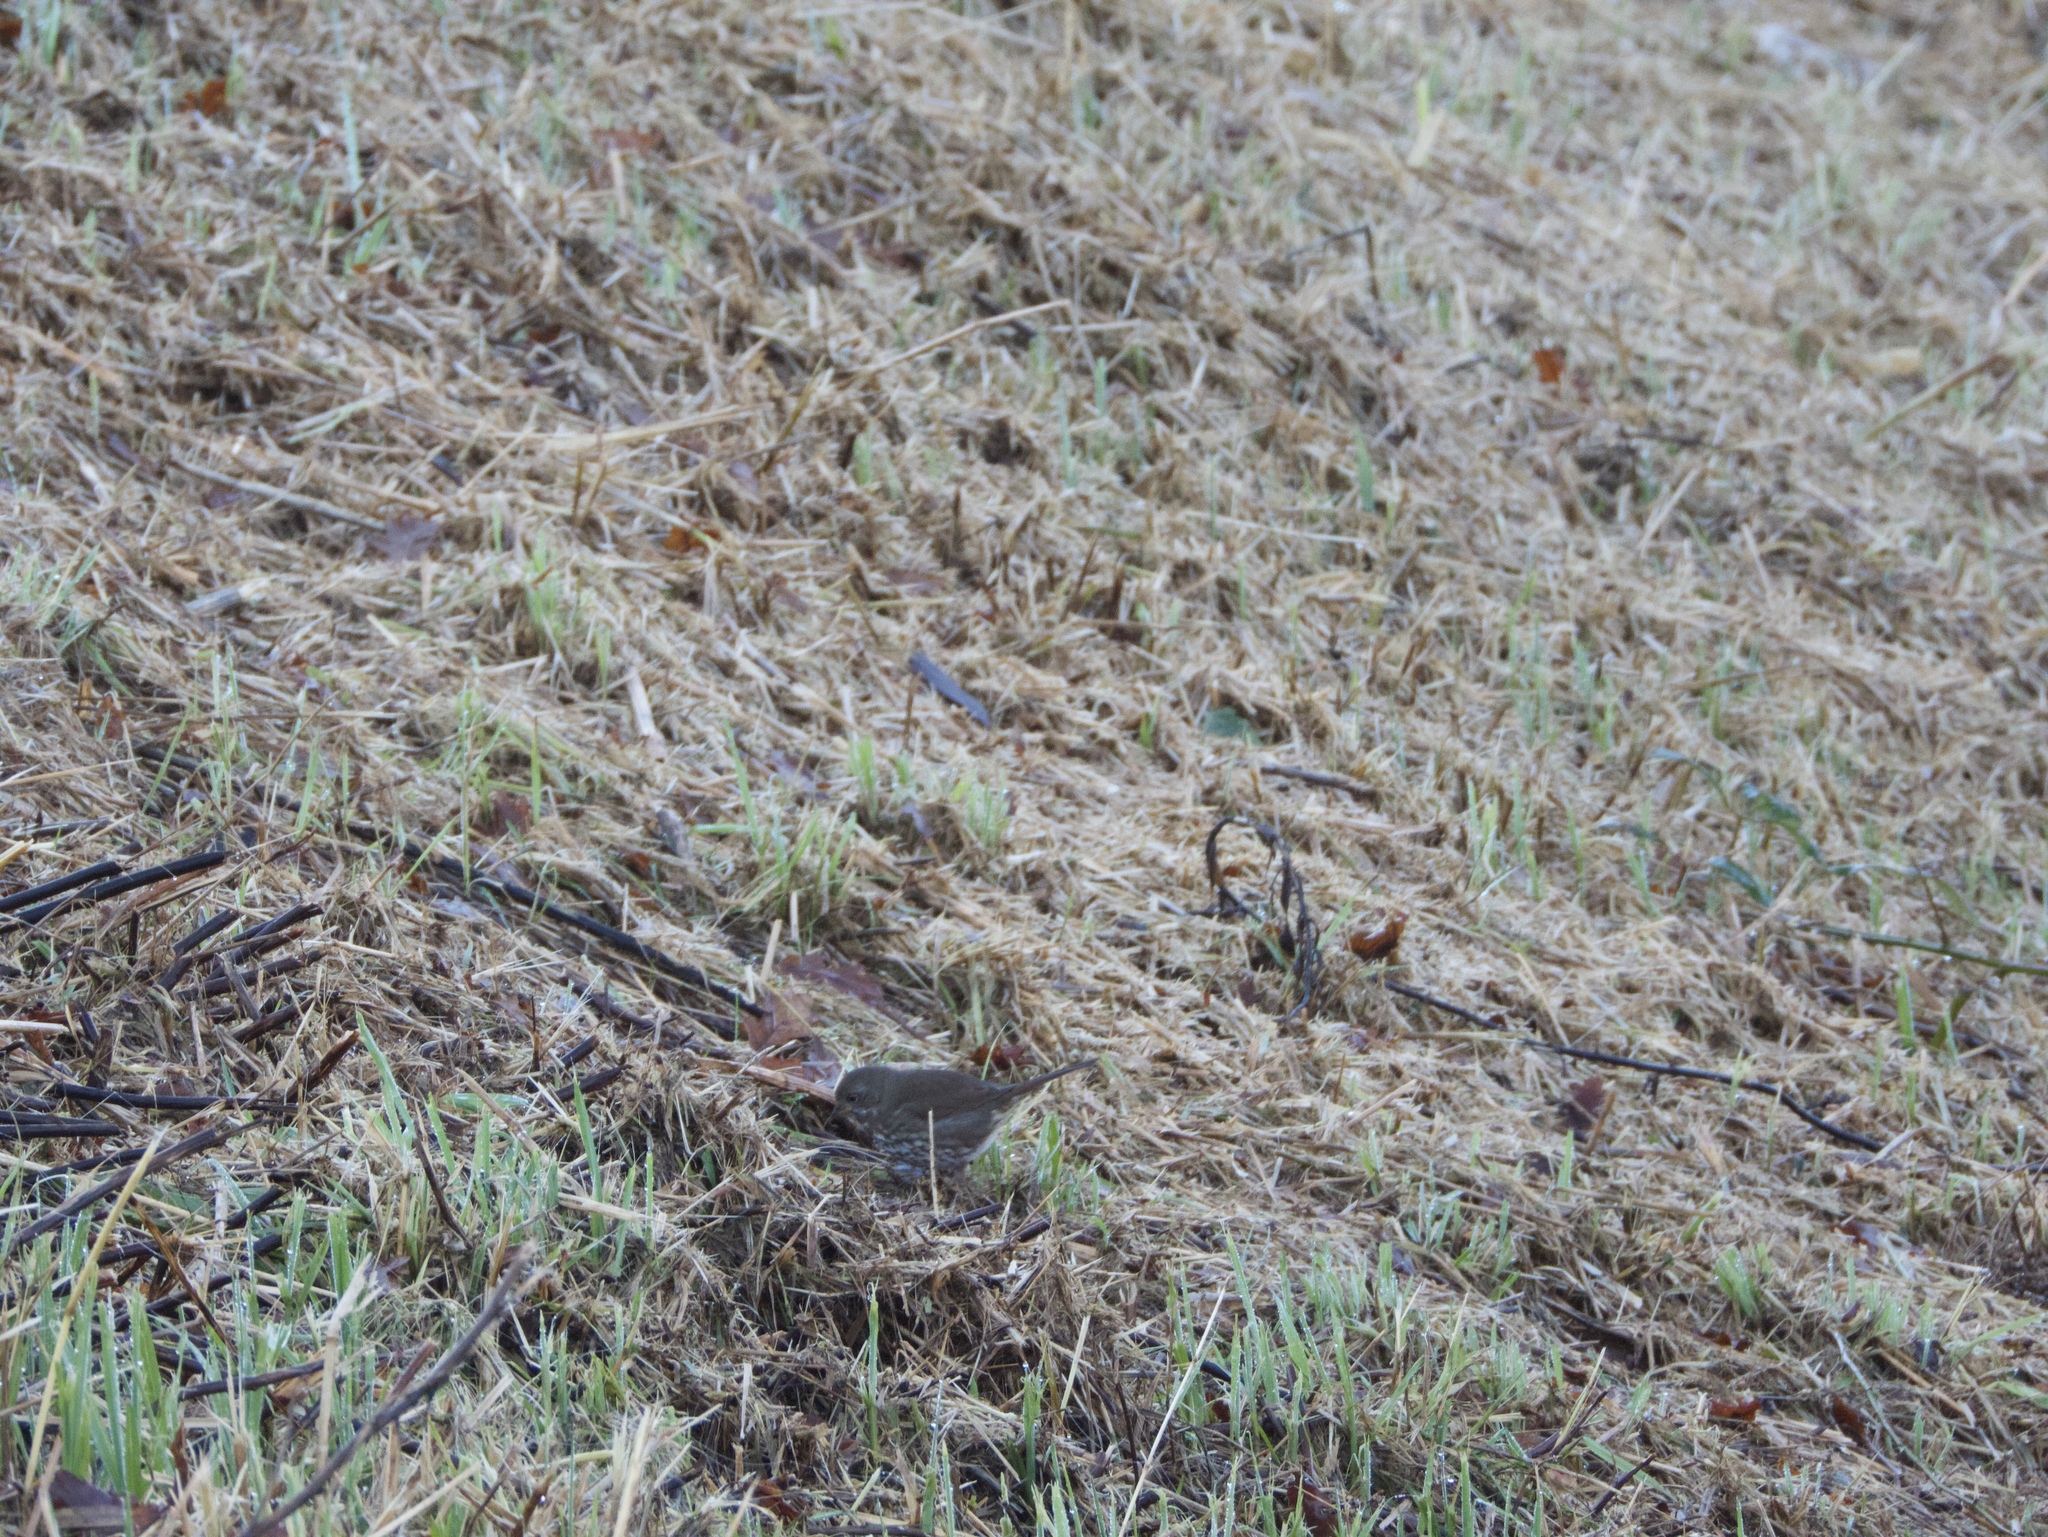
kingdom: Animalia
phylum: Chordata
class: Aves
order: Passeriformes
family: Passerellidae
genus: Passerella
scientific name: Passerella iliaca
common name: Fox sparrow
